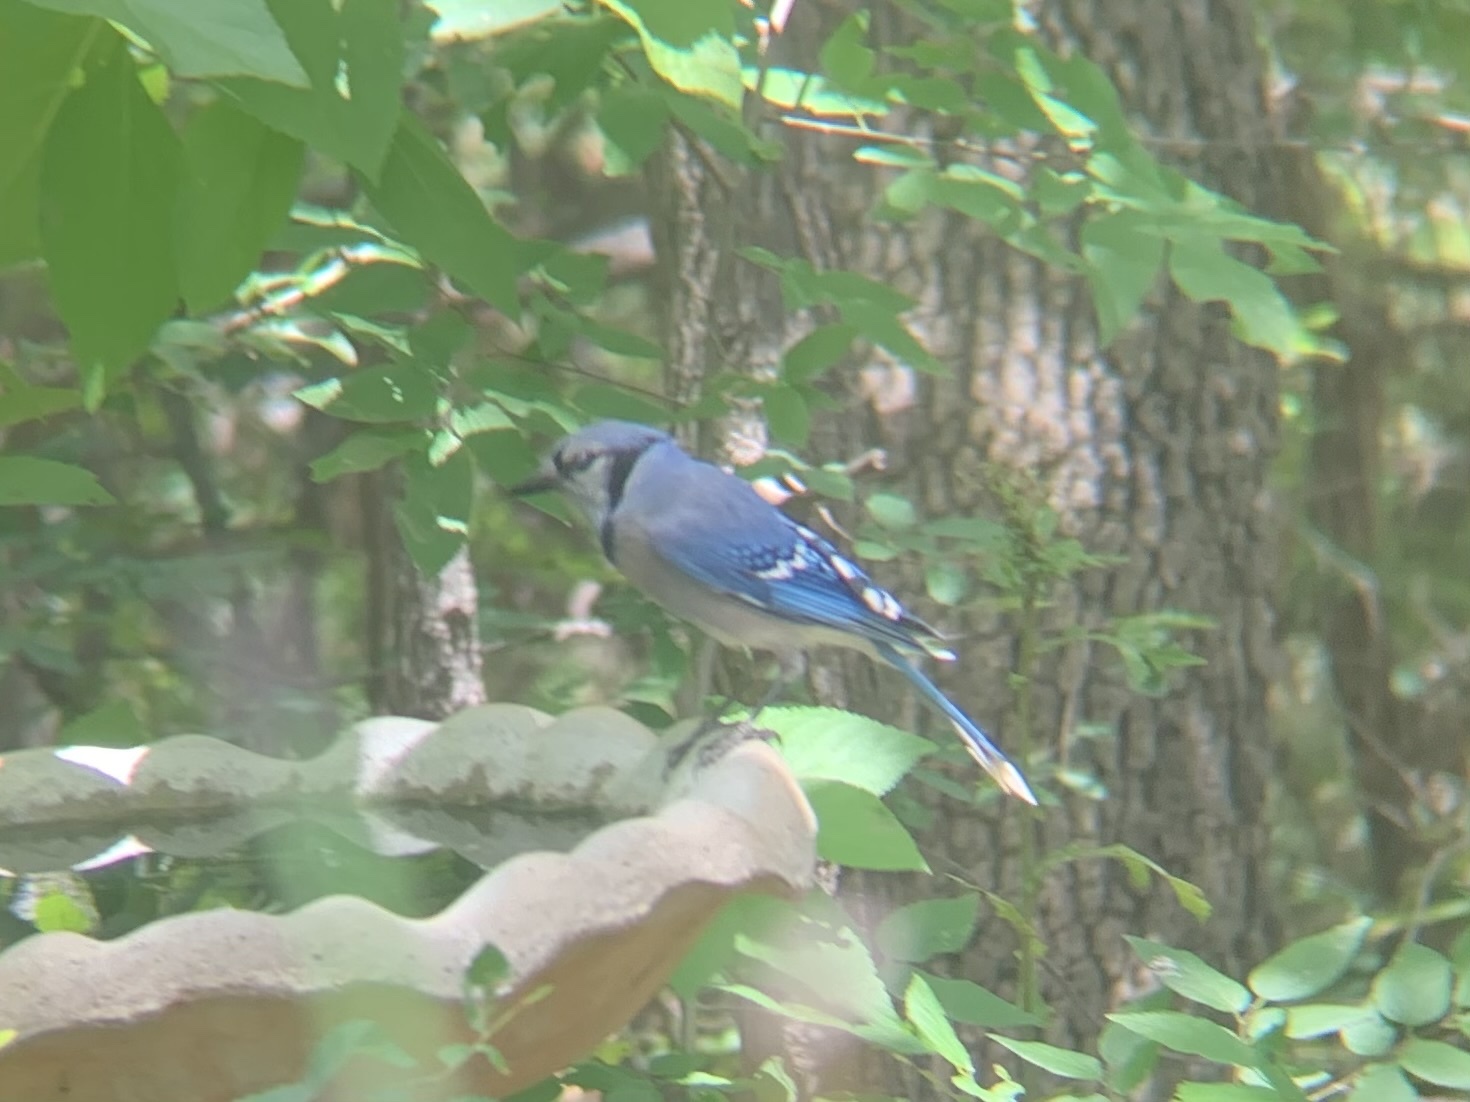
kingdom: Animalia
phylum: Chordata
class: Aves
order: Passeriformes
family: Corvidae
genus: Cyanocitta
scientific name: Cyanocitta cristata
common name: Blue jay
